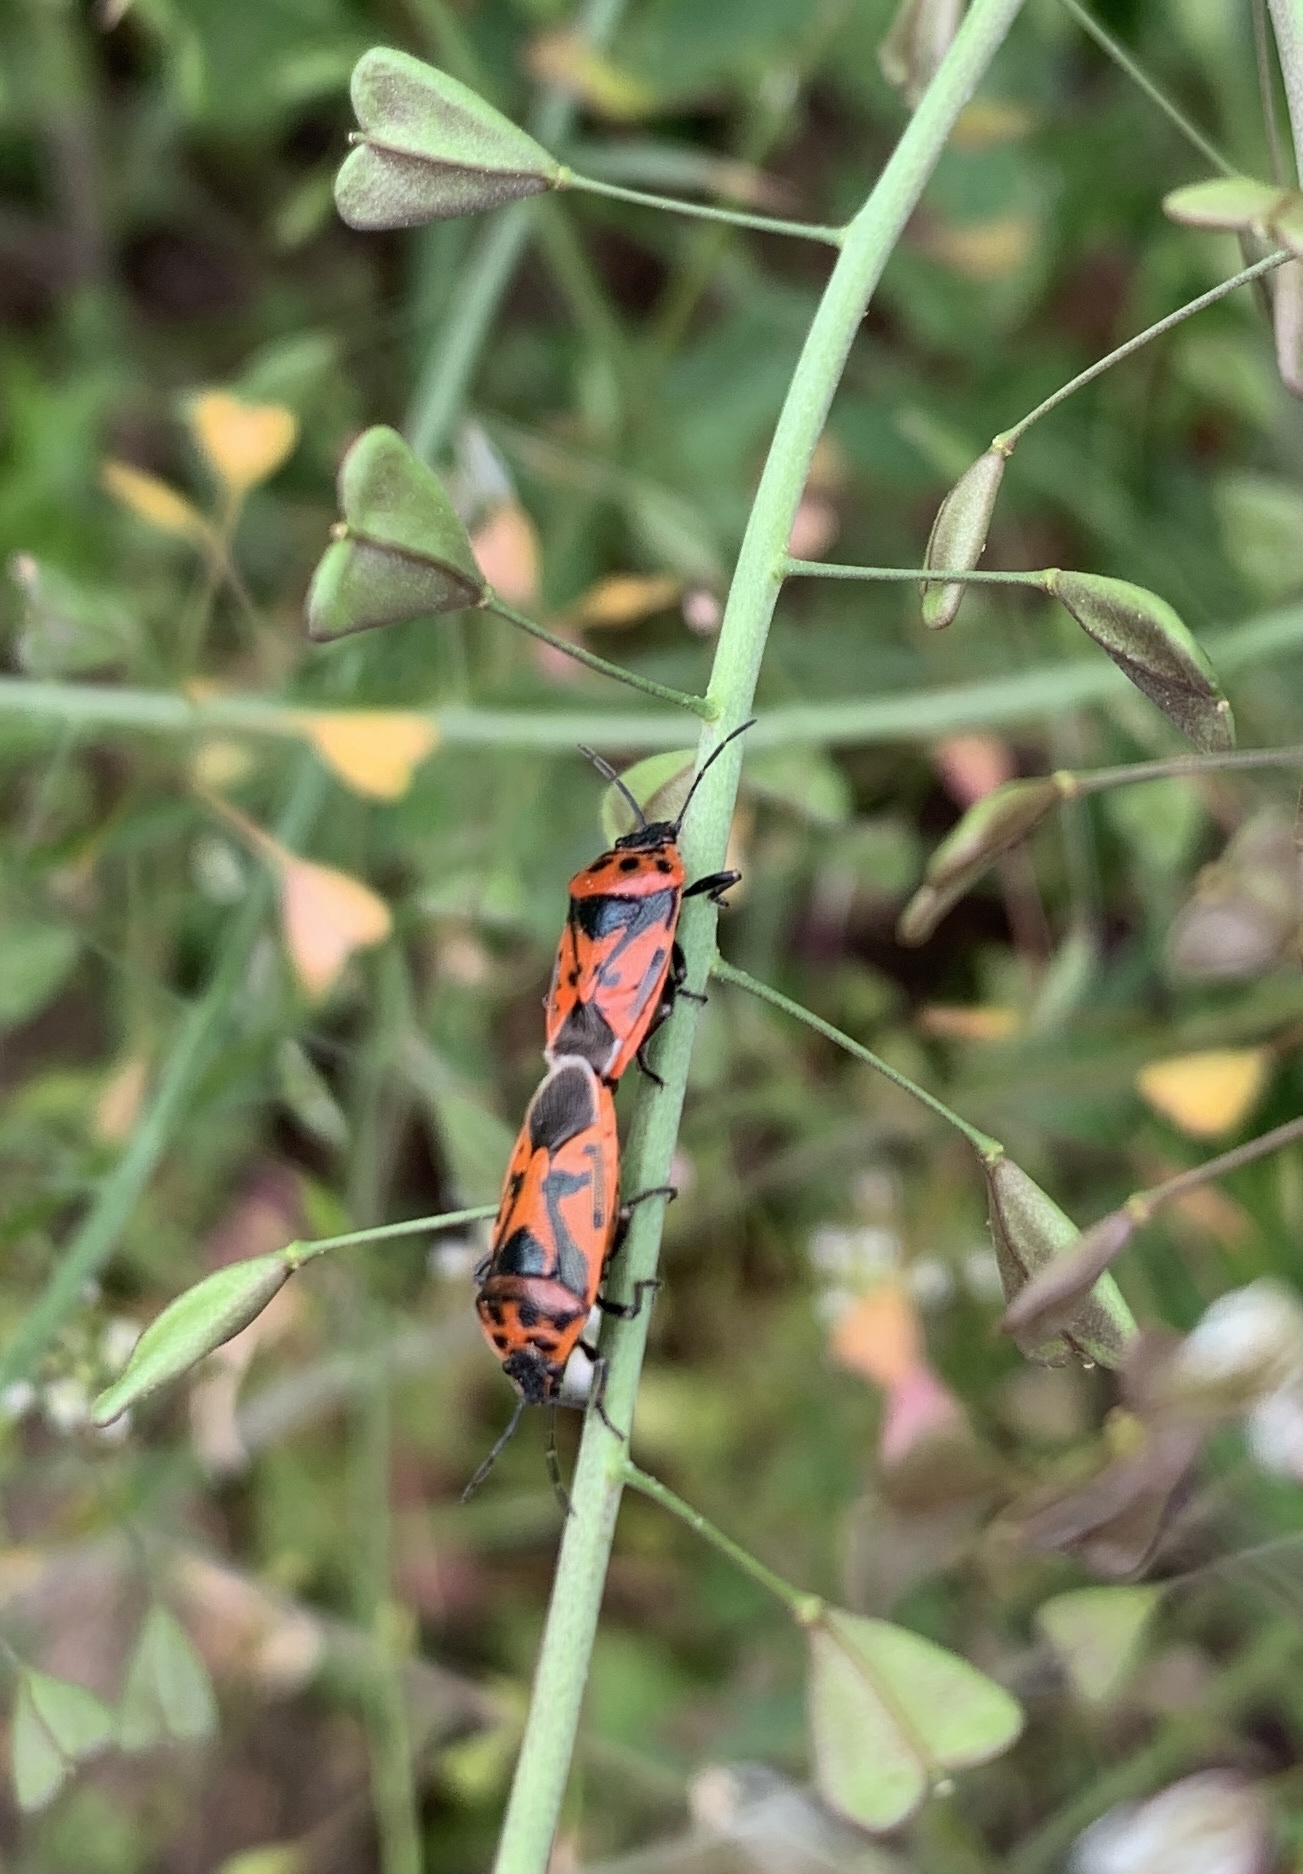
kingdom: Animalia
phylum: Arthropoda
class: Insecta
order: Hemiptera
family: Pentatomidae
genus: Eurydema
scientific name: Eurydema ornata
